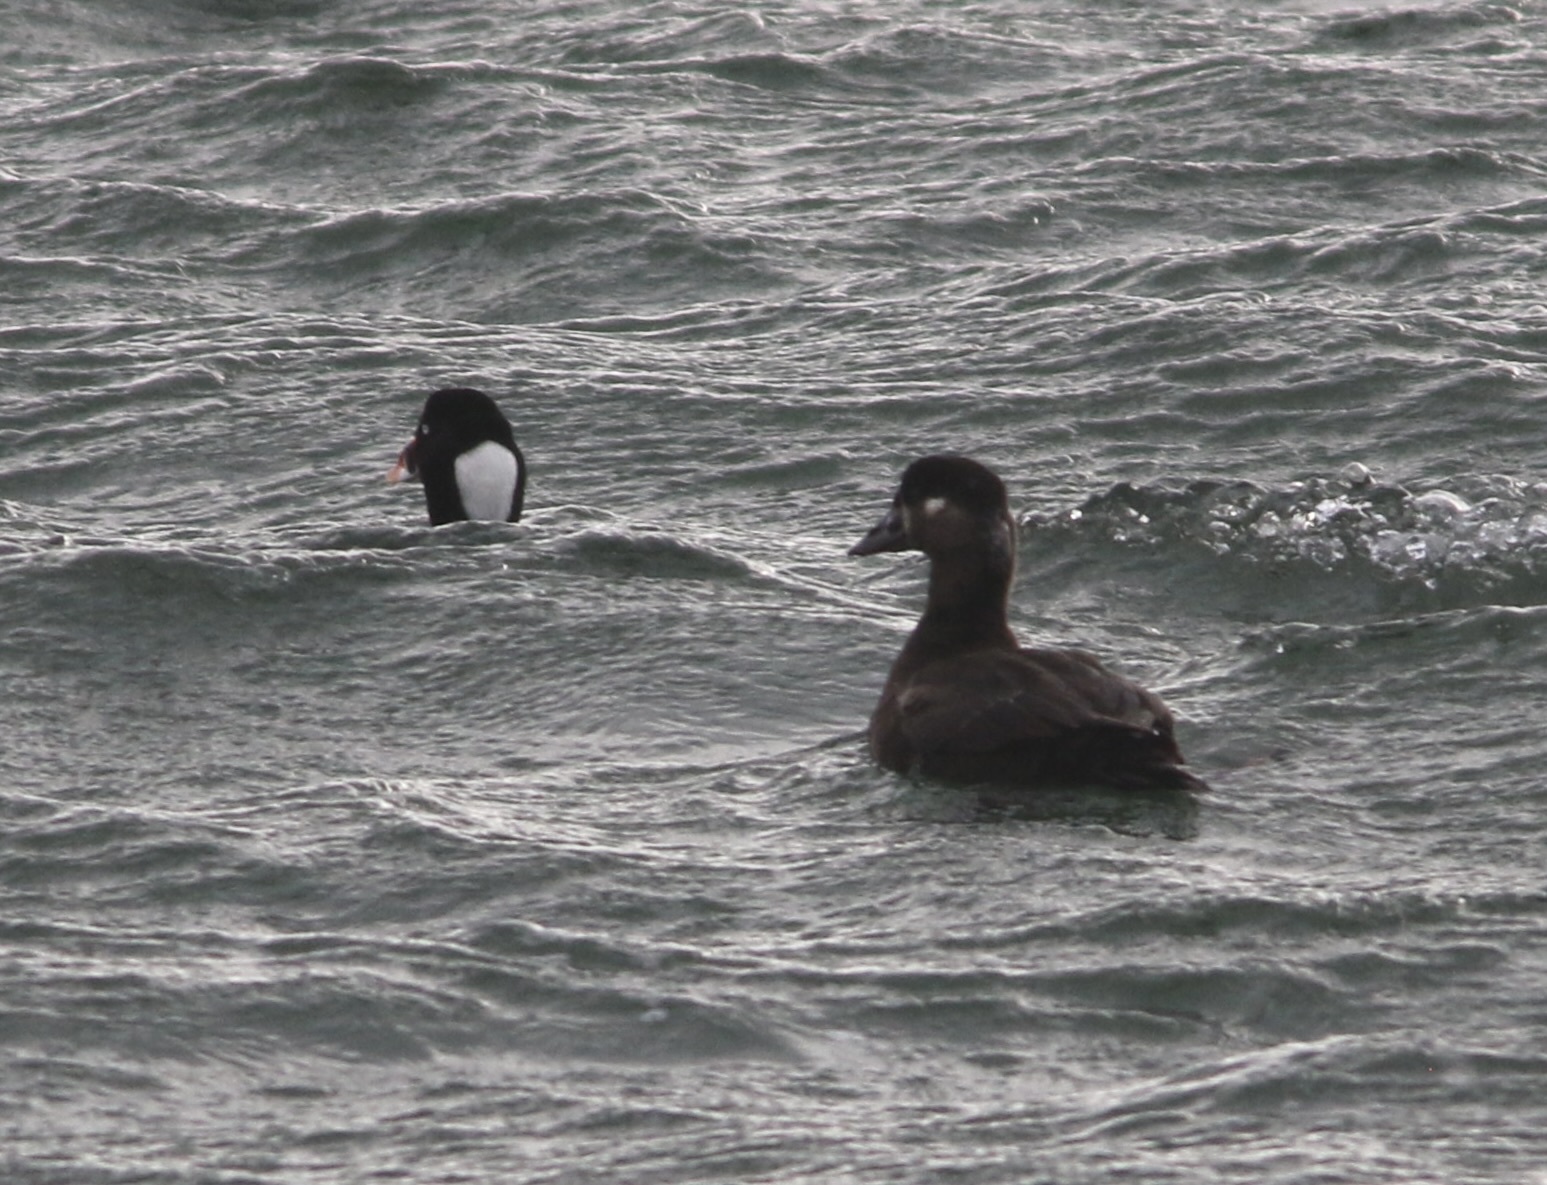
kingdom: Animalia
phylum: Chordata
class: Aves
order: Anseriformes
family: Anatidae
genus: Melanitta
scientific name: Melanitta perspicillata
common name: Surf scoter
